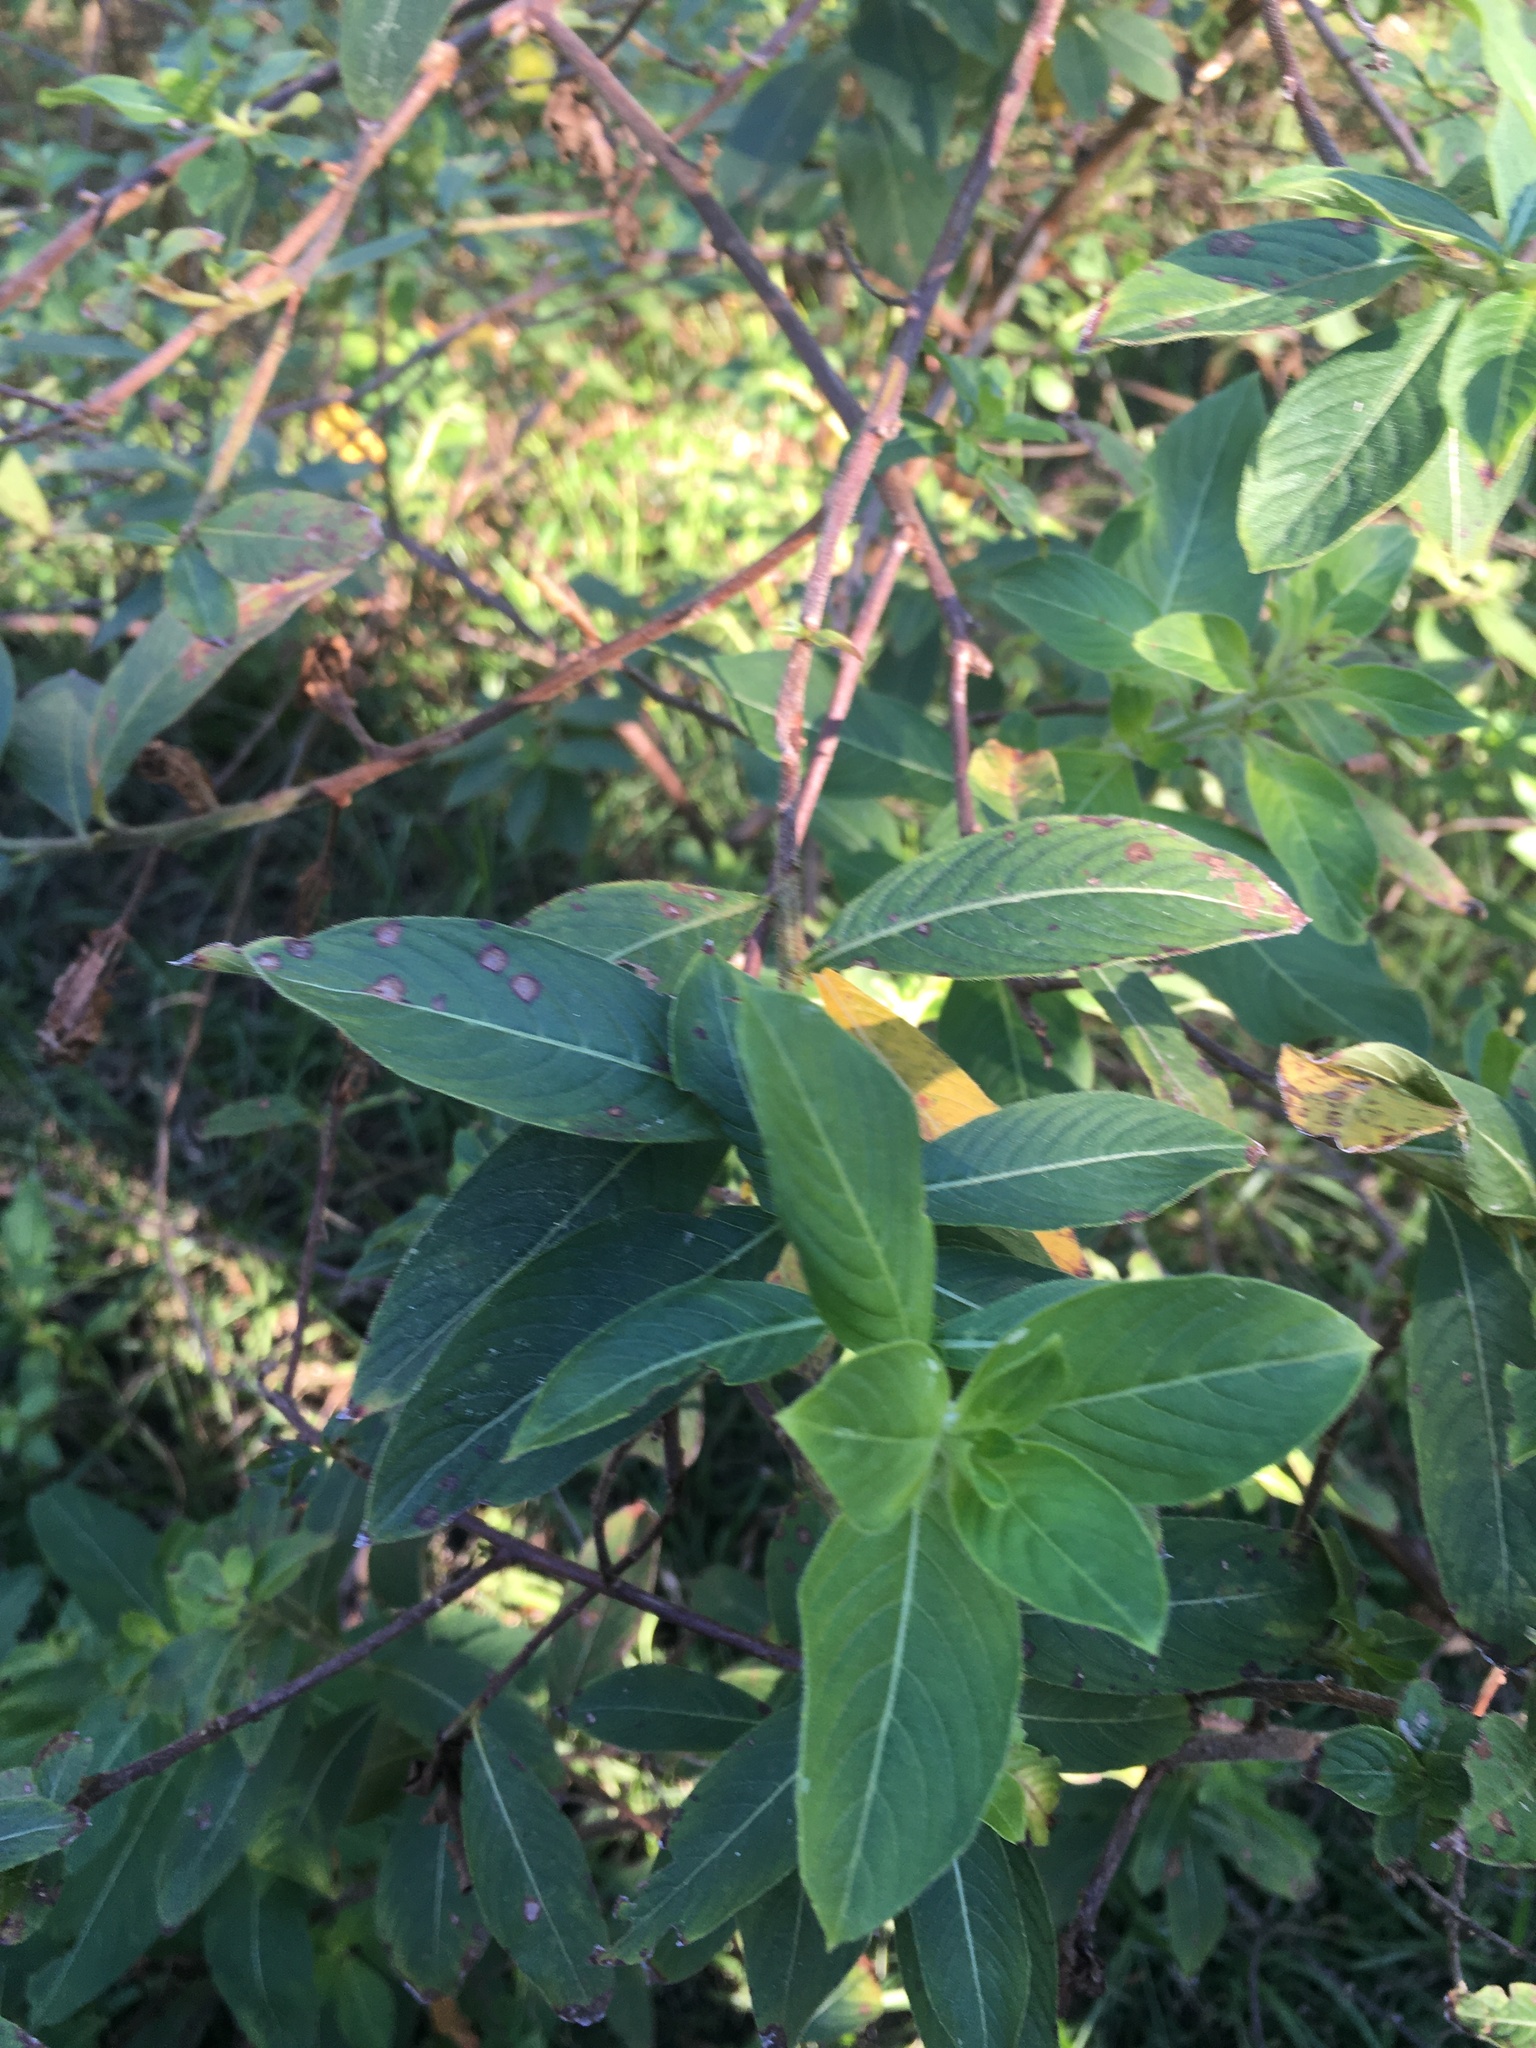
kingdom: Plantae
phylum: Tracheophyta
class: Magnoliopsida
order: Myrtales
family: Onagraceae
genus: Ludwigia
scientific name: Ludwigia peruviana
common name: Peruvian primrose-willow
